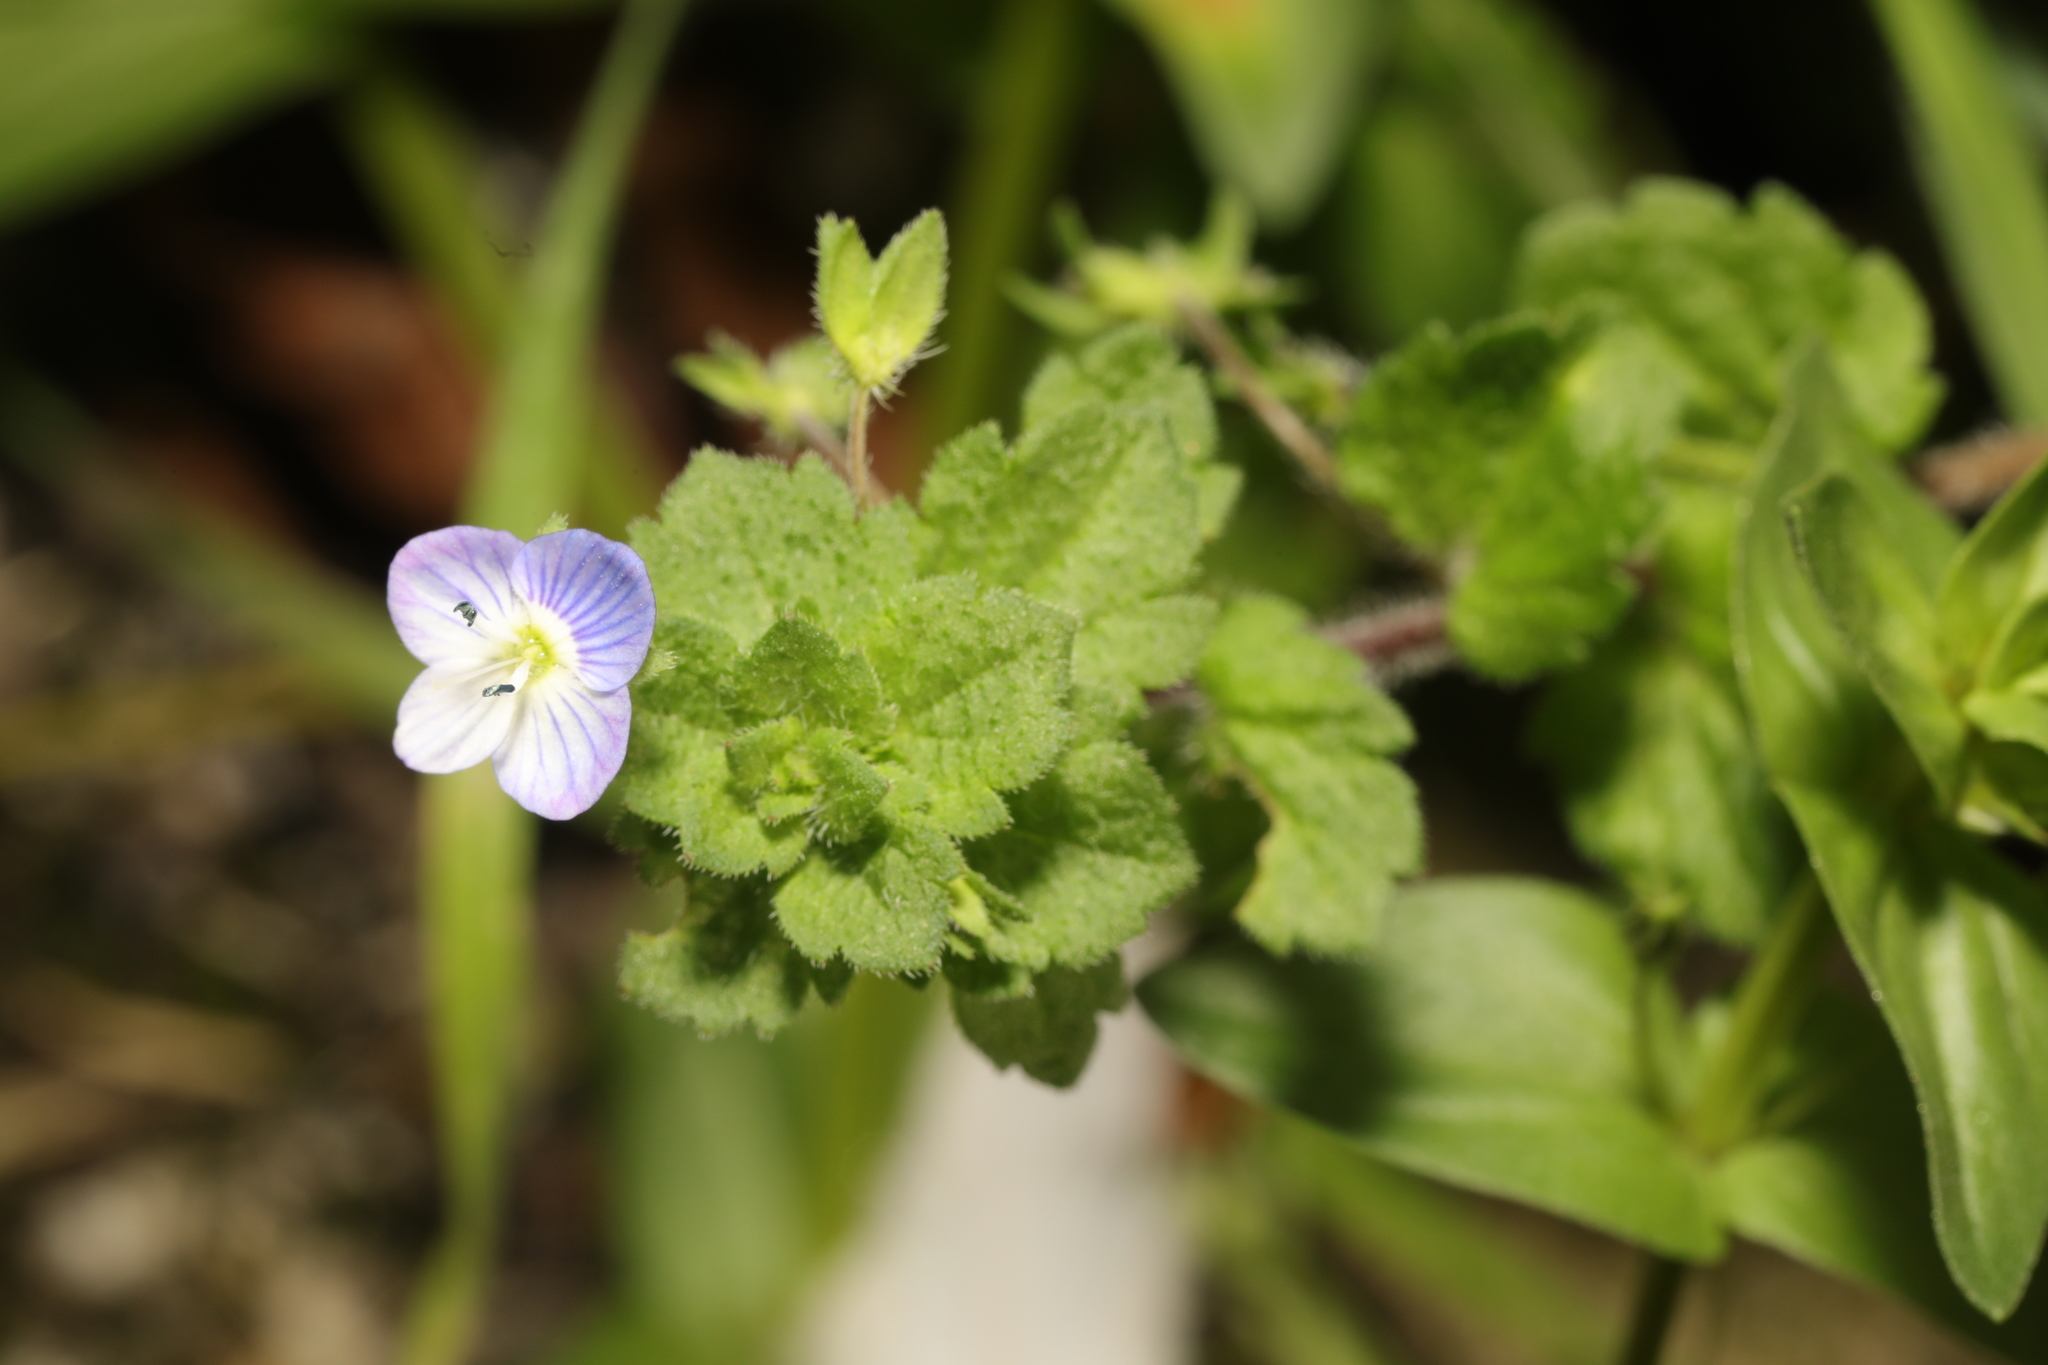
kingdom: Plantae
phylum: Tracheophyta
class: Magnoliopsida
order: Lamiales
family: Plantaginaceae
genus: Veronica
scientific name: Veronica persica
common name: Common field-speedwell
